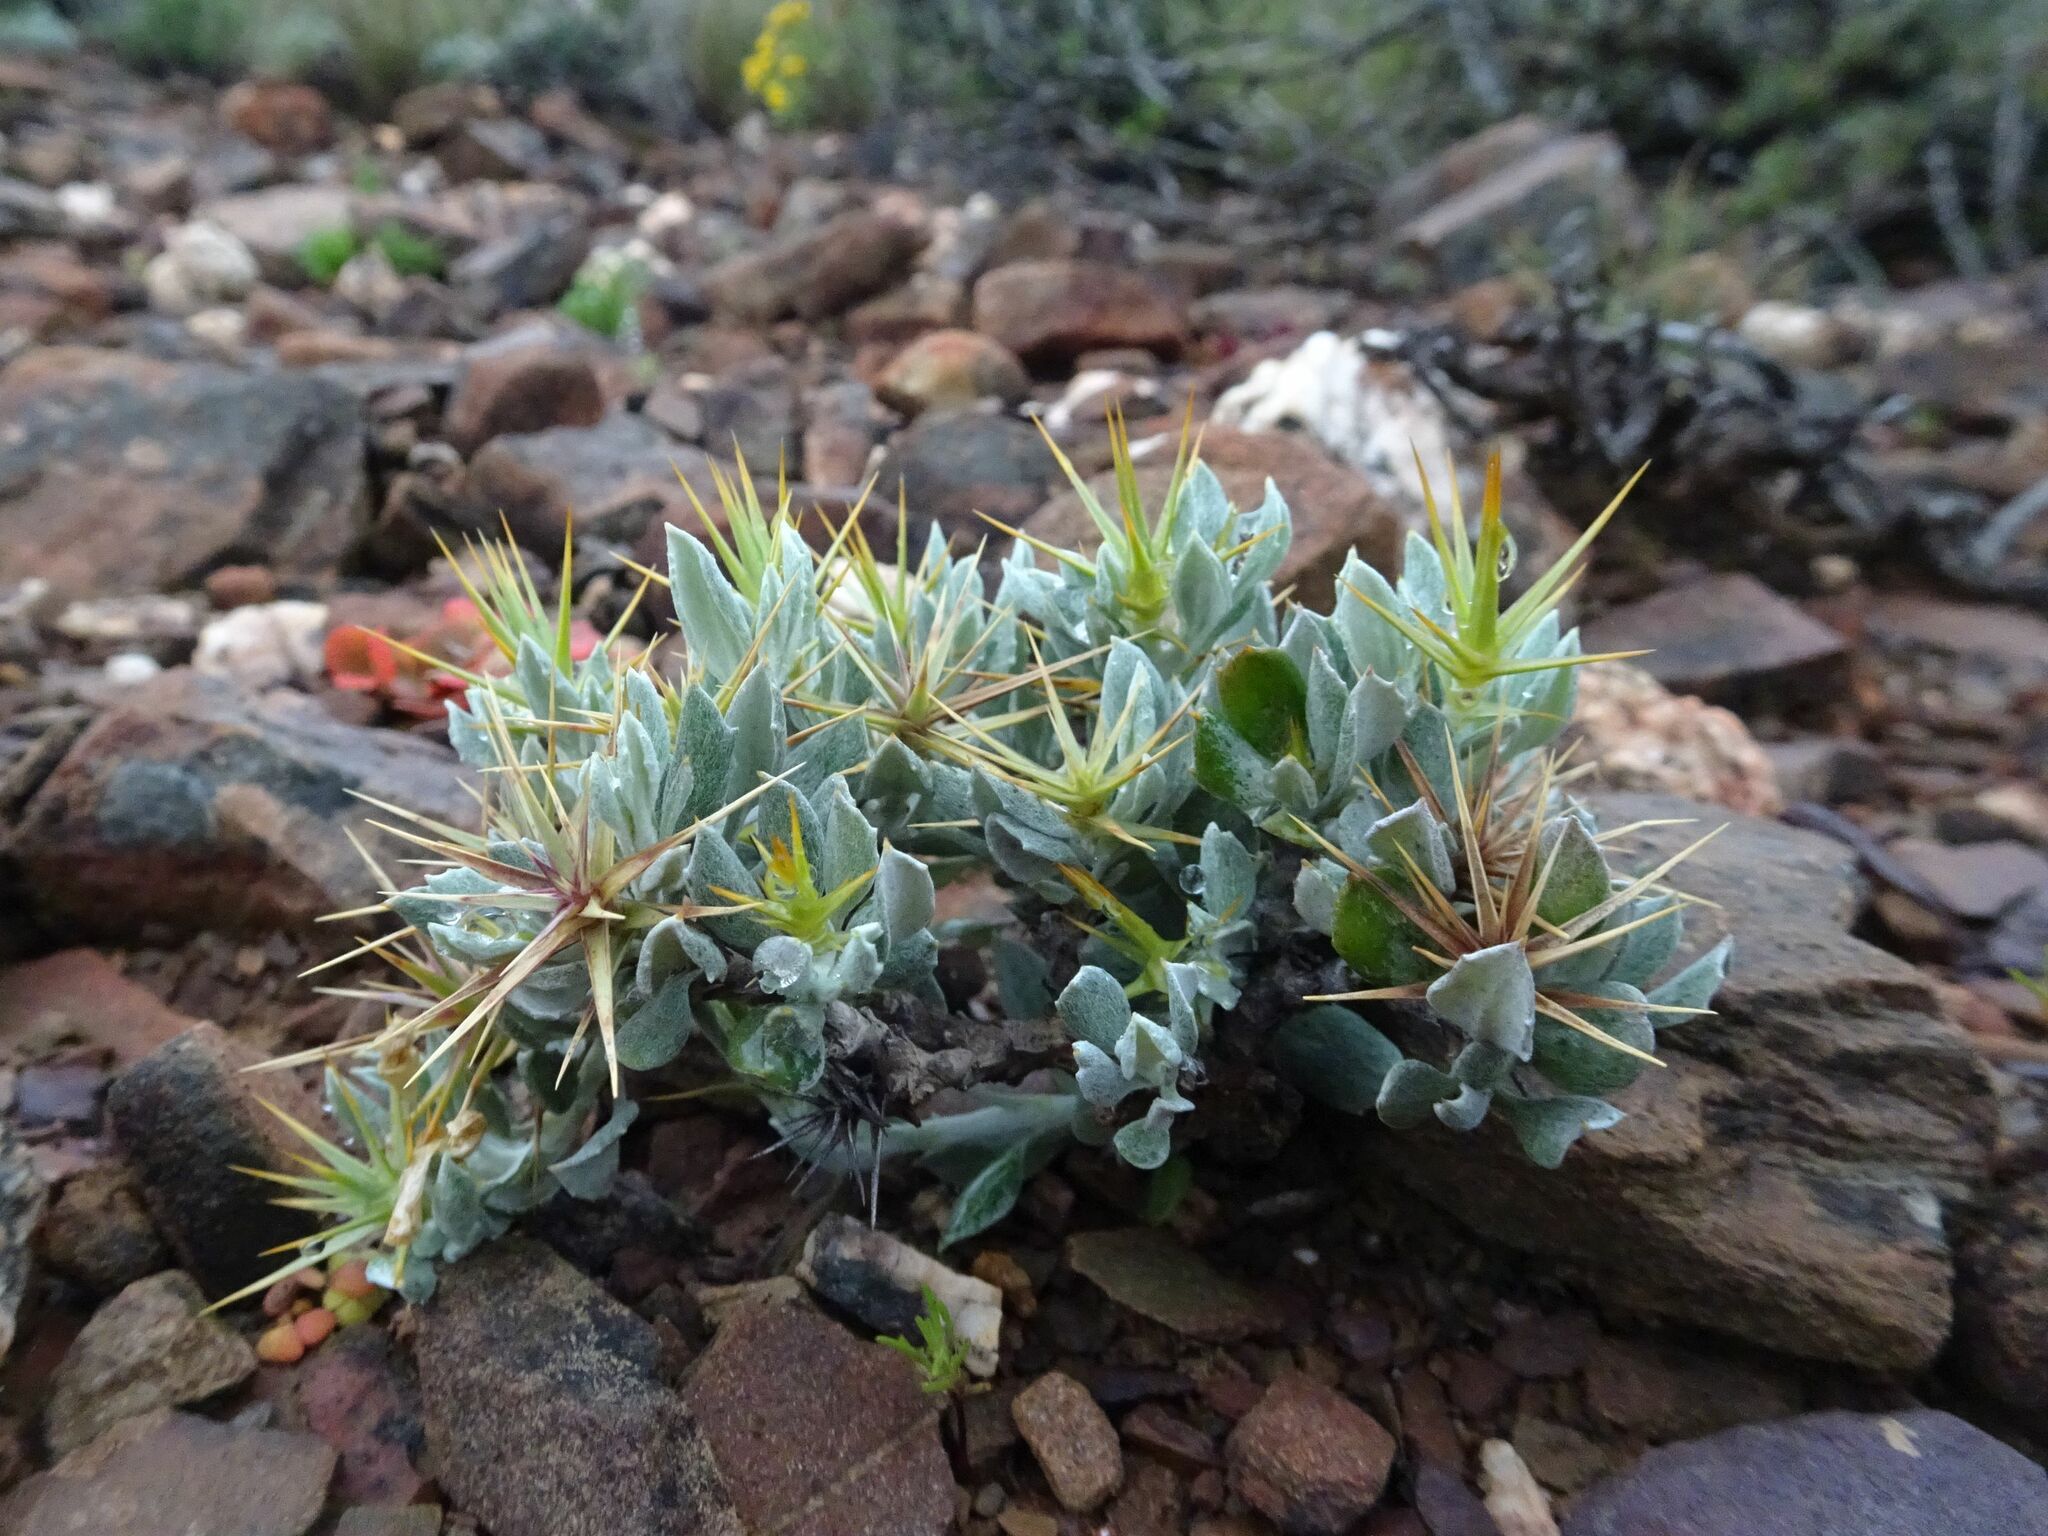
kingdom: Plantae
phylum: Tracheophyta
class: Magnoliopsida
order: Asterales
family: Asteraceae
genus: Macledium
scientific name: Macledium spinosum
